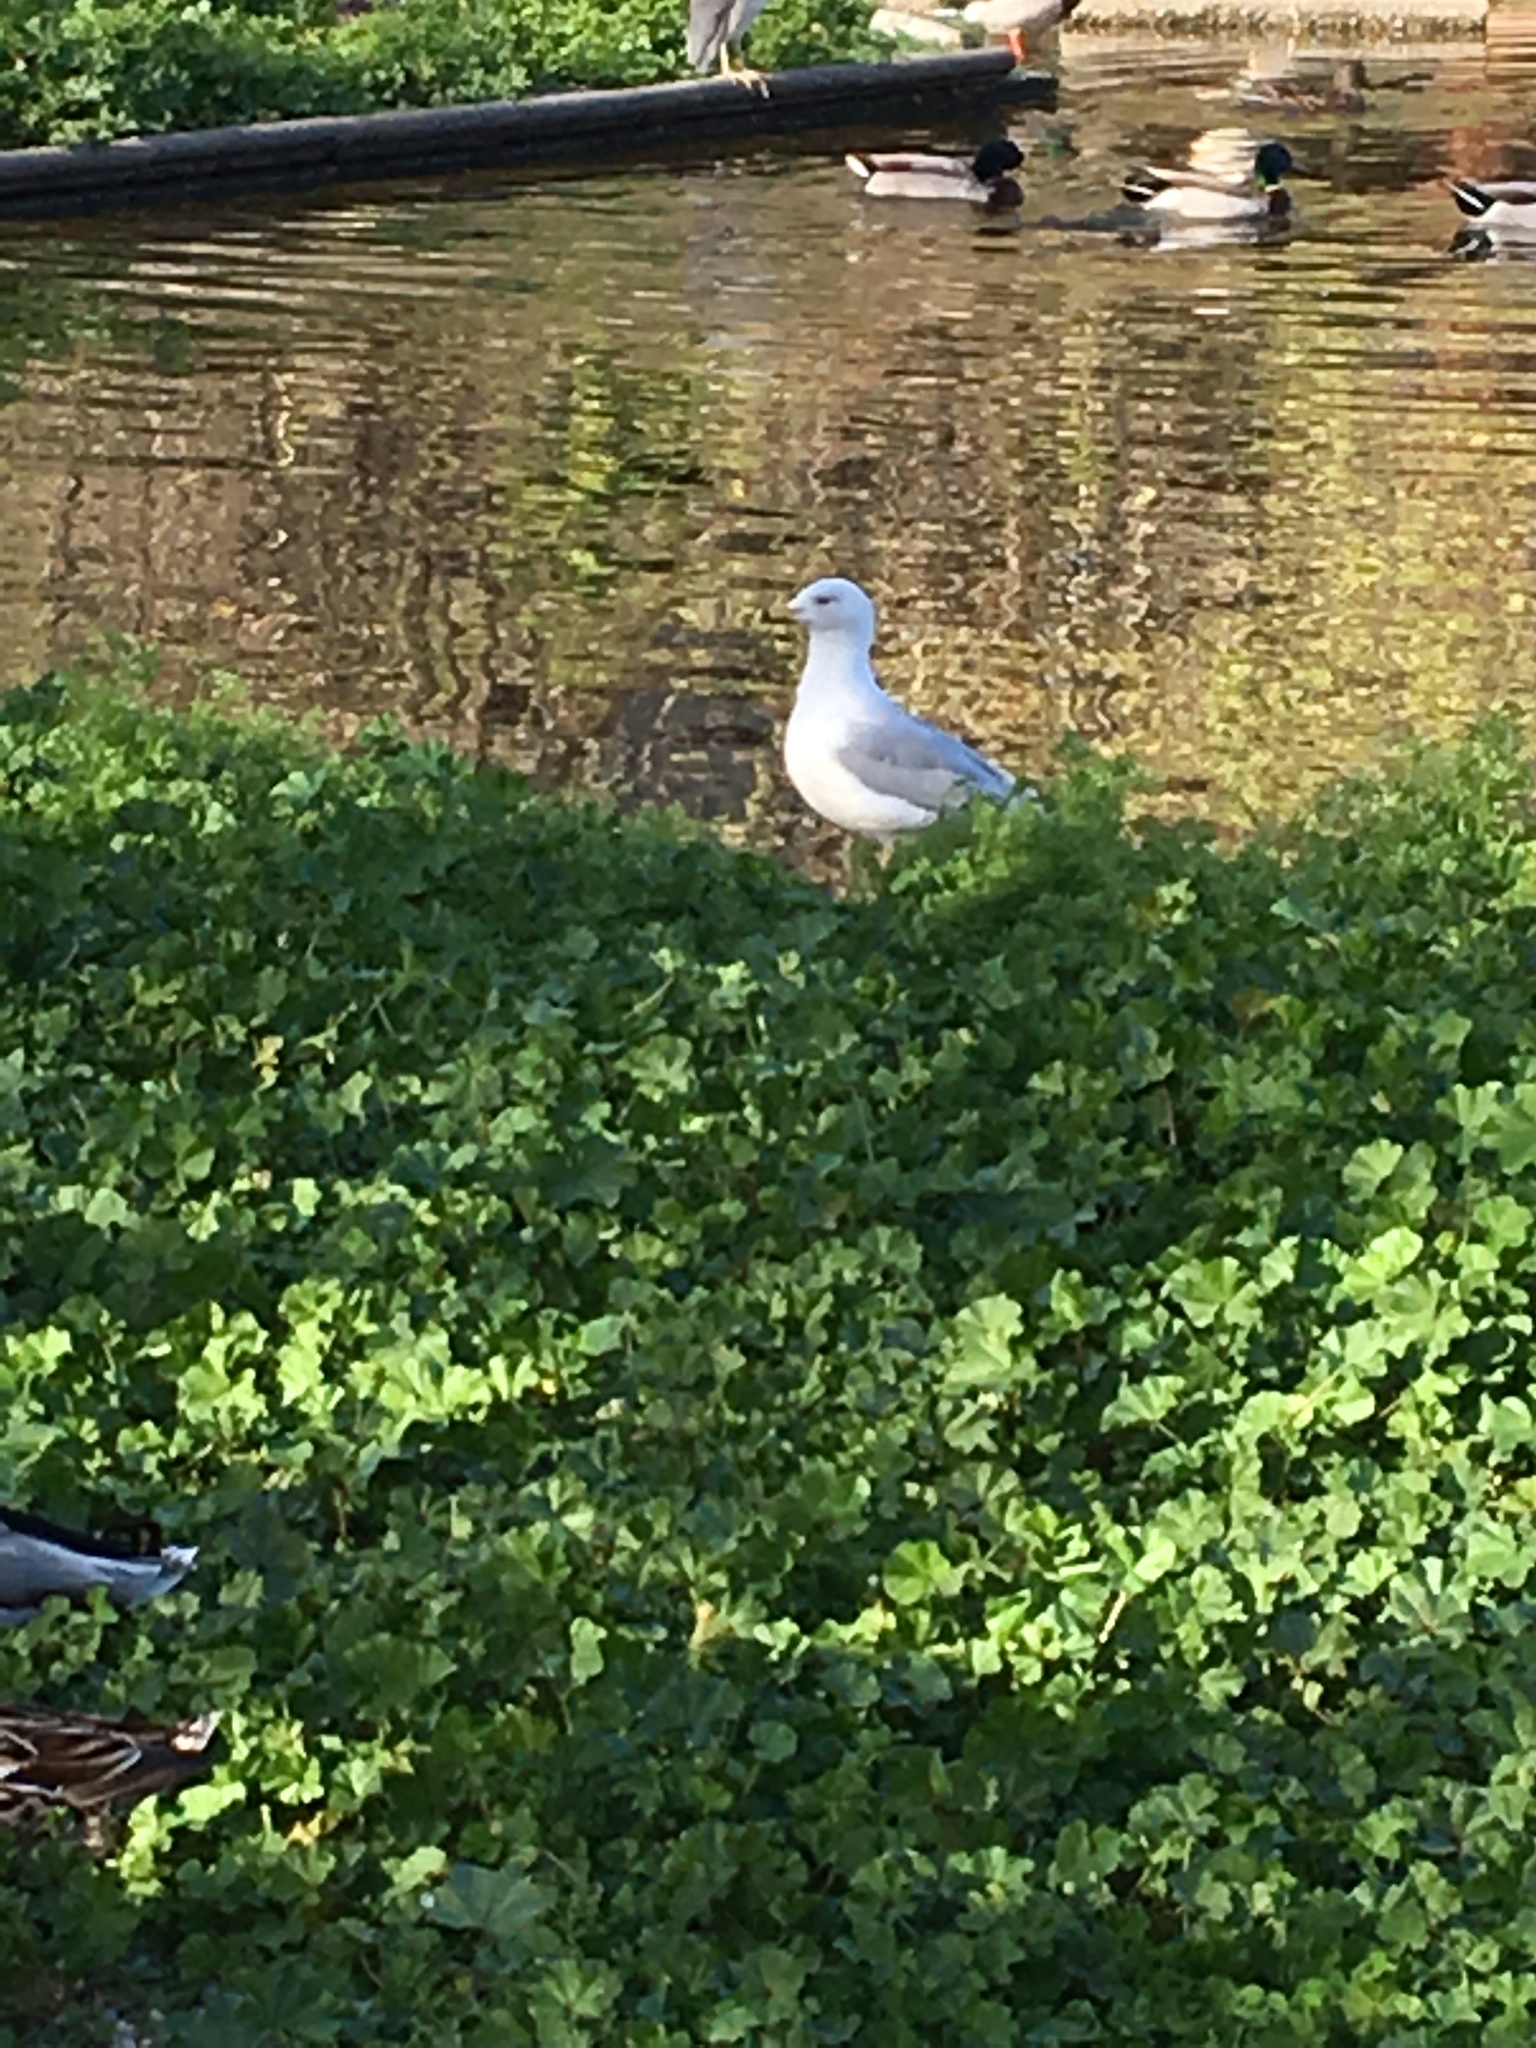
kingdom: Animalia
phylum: Chordata
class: Aves
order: Charadriiformes
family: Laridae
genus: Larus
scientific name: Larus delawarensis
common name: Ring-billed gull
